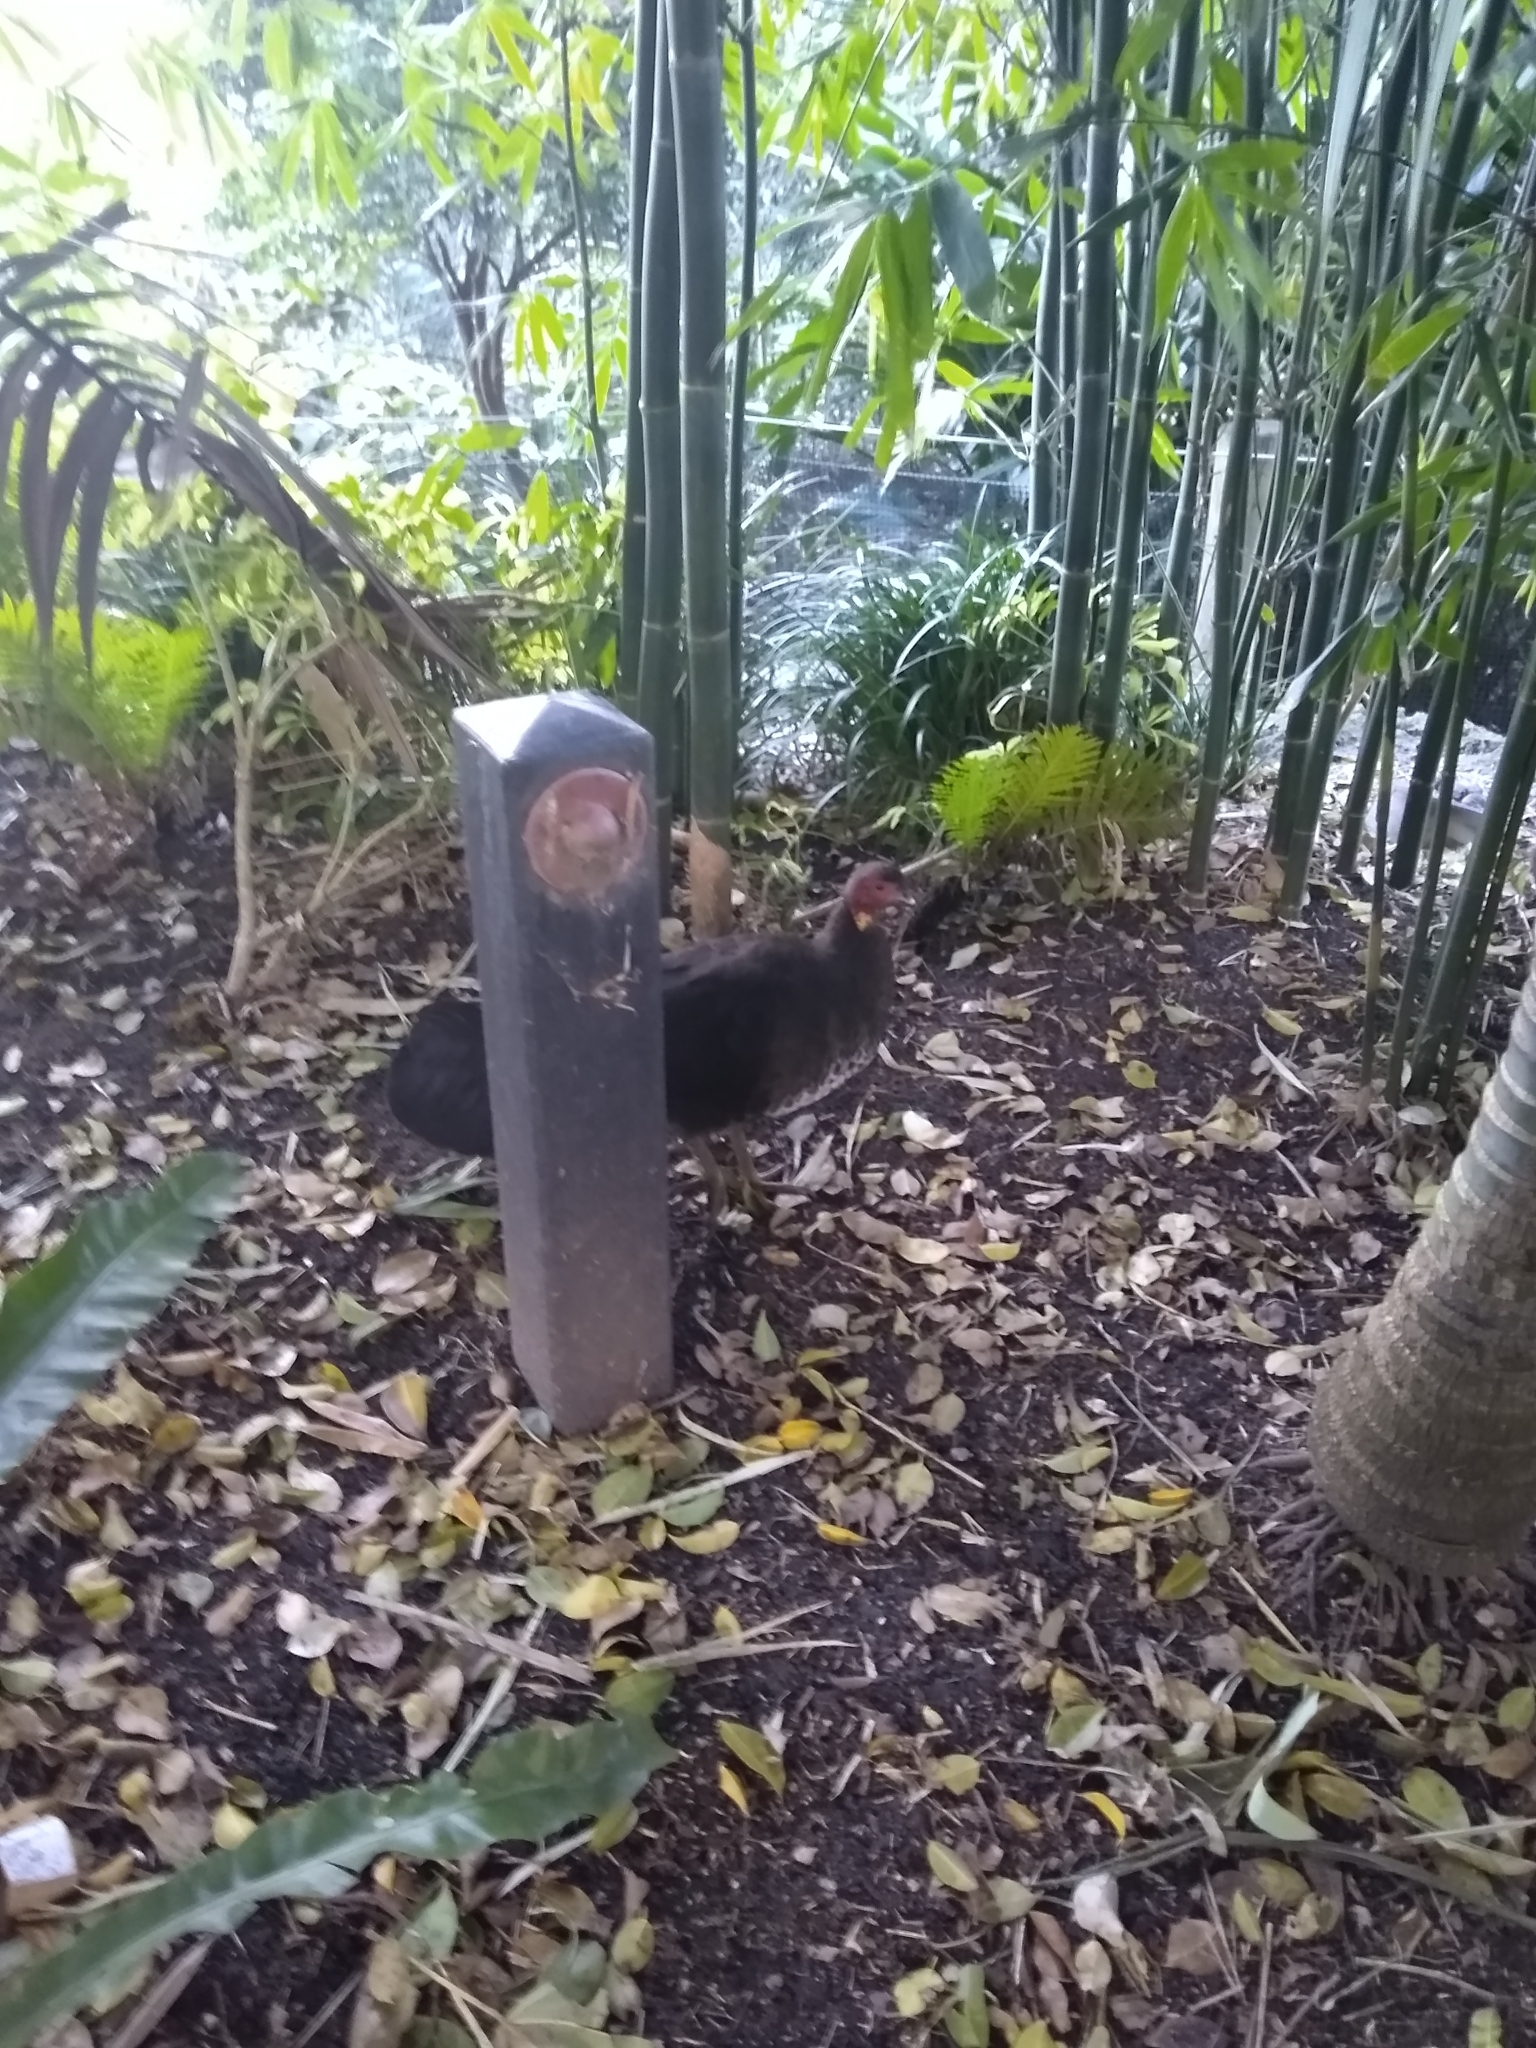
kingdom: Animalia
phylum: Chordata
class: Aves
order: Galliformes
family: Megapodiidae
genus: Alectura
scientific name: Alectura lathami
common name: Australian brushturkey
